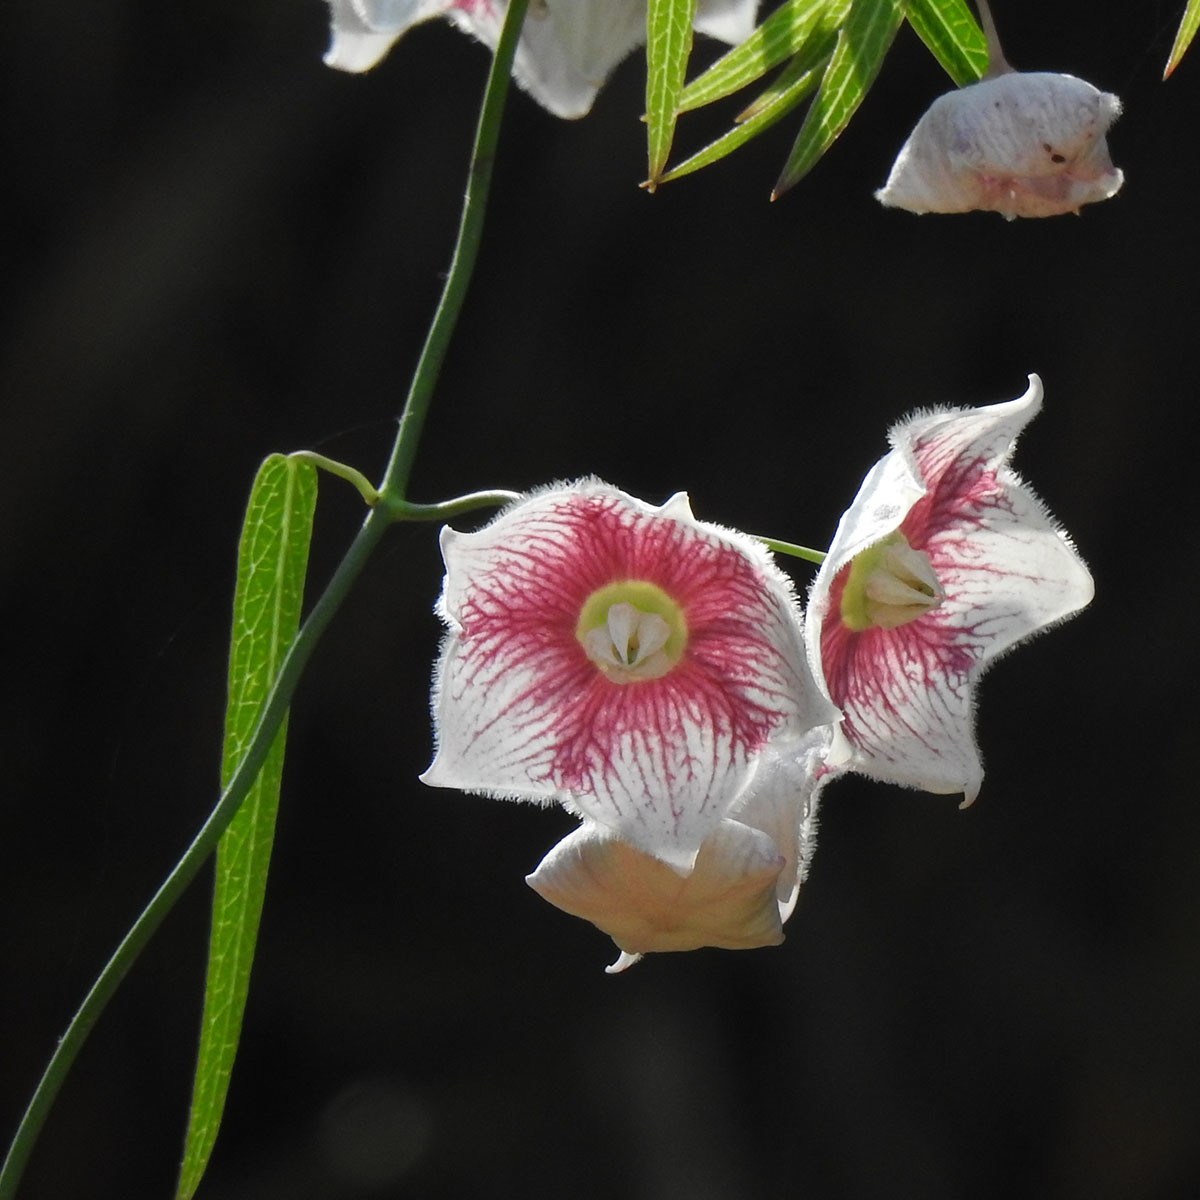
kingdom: Plantae
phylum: Tracheophyta
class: Magnoliopsida
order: Gentianales
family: Apocynaceae
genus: Oxystelma
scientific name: Oxystelma wallichii
